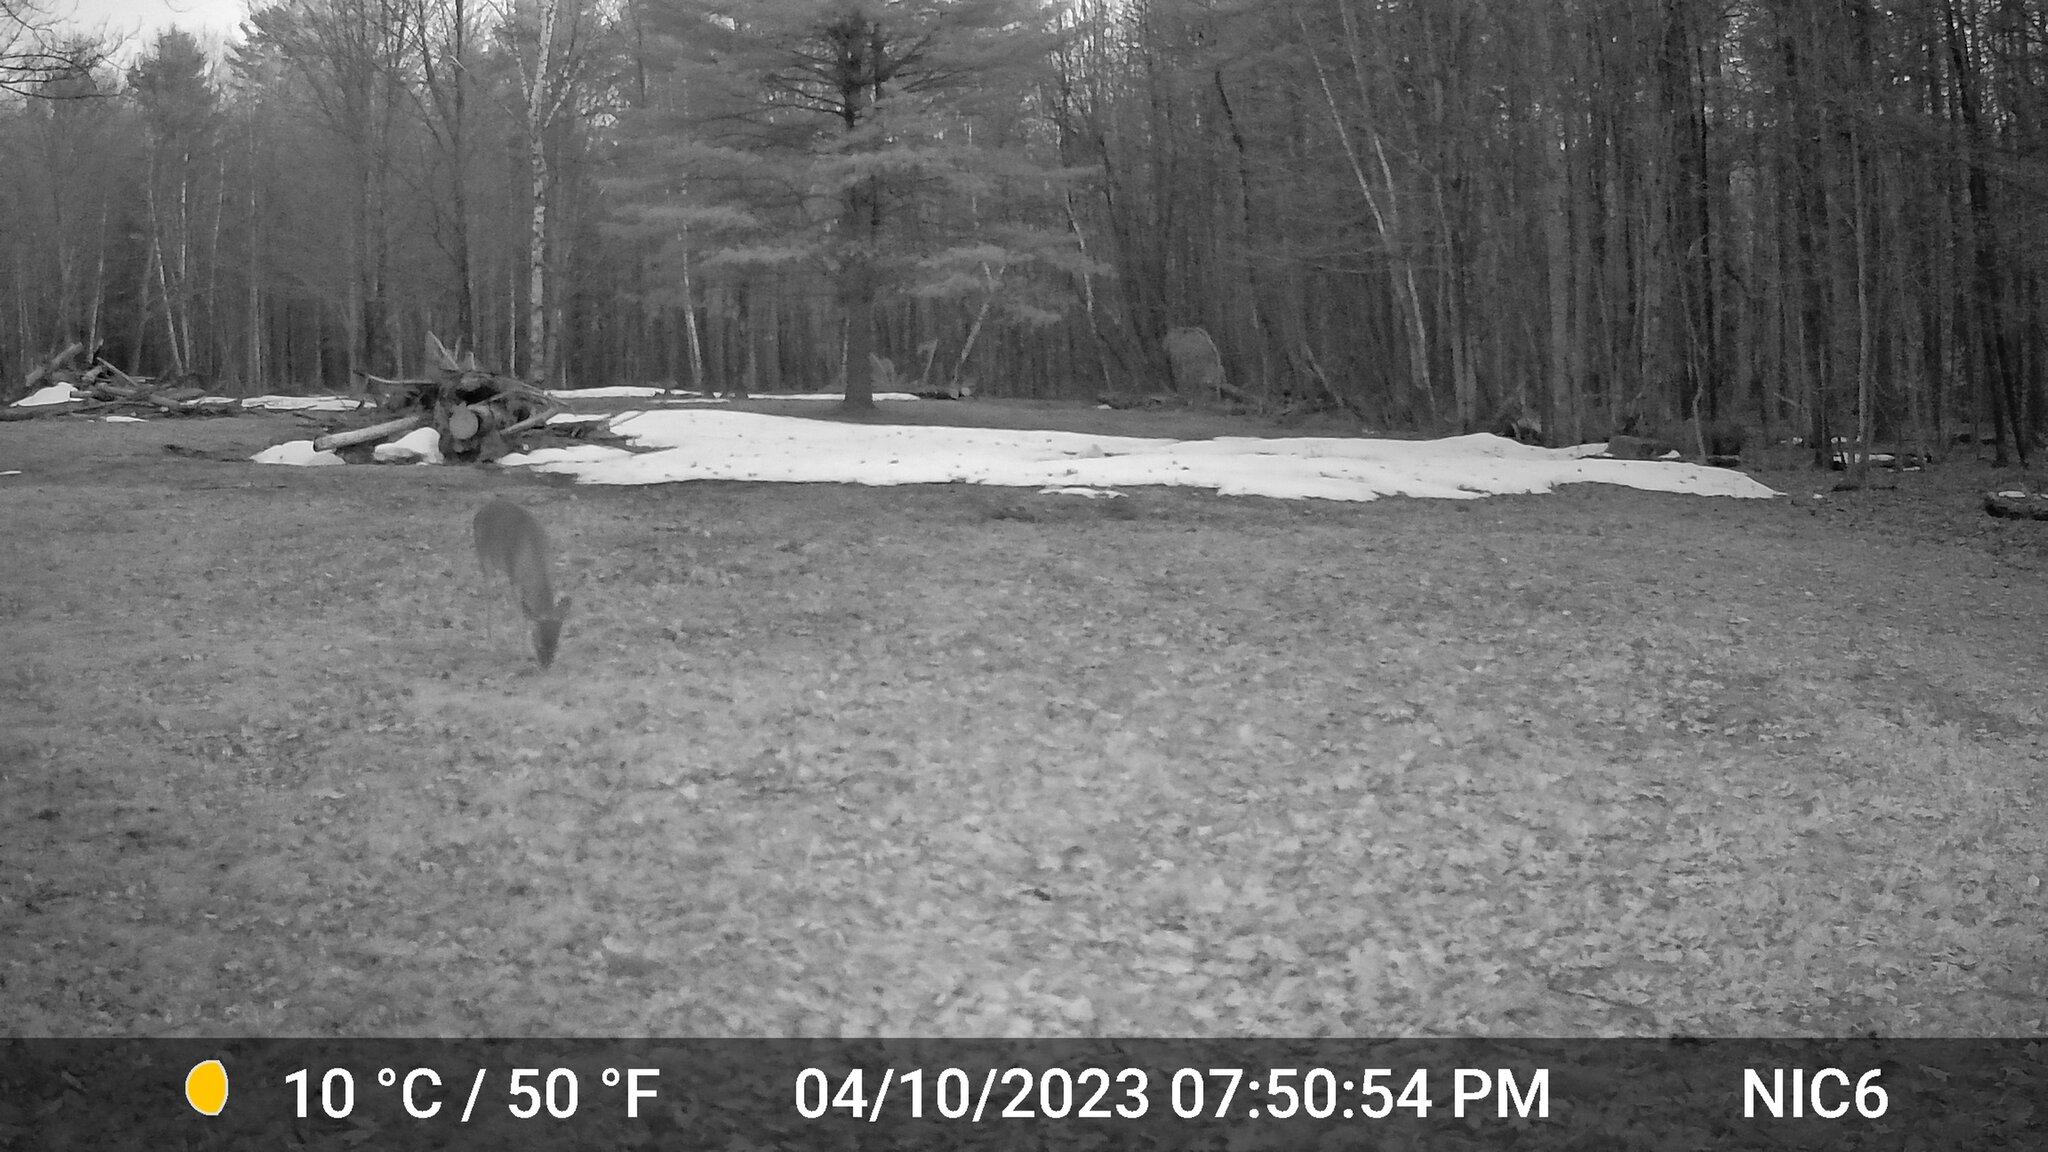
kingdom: Animalia
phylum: Chordata
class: Mammalia
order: Artiodactyla
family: Cervidae
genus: Odocoileus
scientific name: Odocoileus virginianus
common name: White-tailed deer
